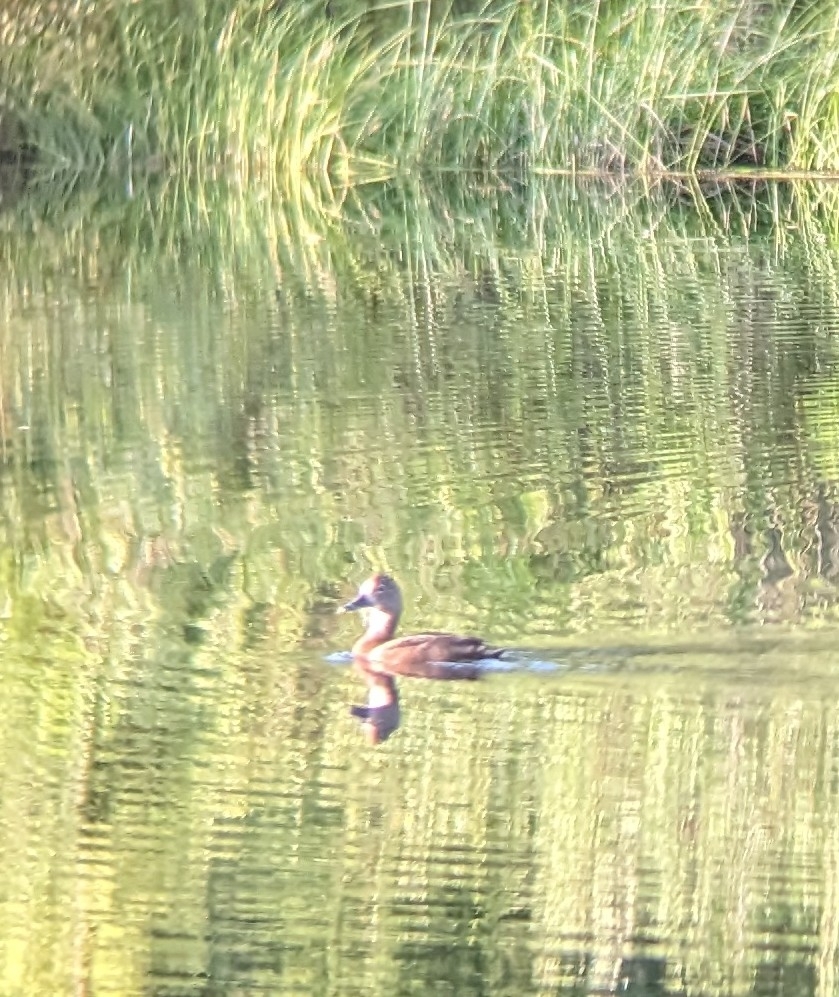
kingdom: Animalia
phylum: Chordata
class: Aves
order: Anseriformes
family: Anatidae
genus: Aythya
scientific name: Aythya collaris
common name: Ring-necked duck
